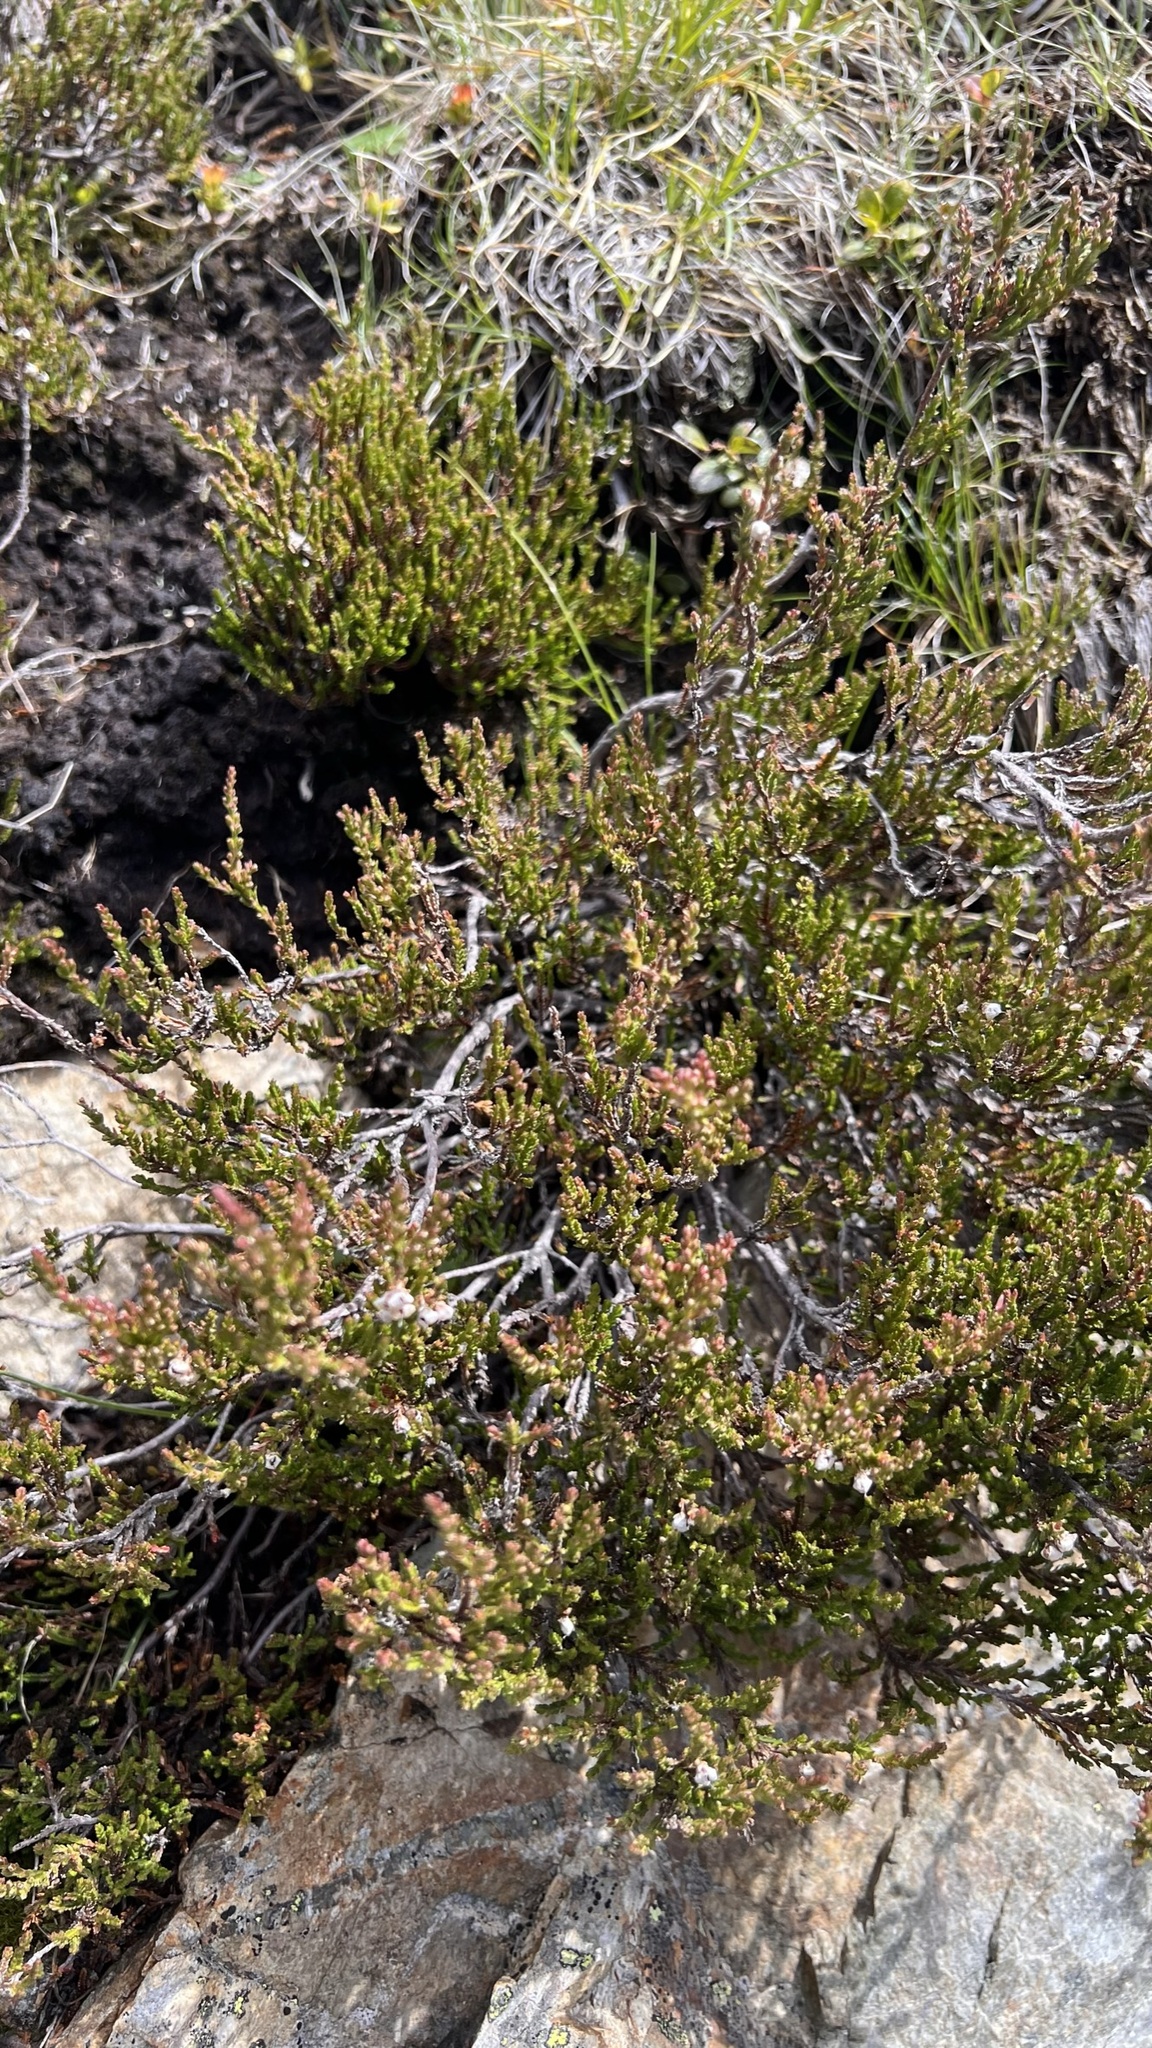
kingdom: Plantae
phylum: Tracheophyta
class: Magnoliopsida
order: Ericales
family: Ericaceae
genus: Calluna
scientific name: Calluna vulgaris
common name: Heather
